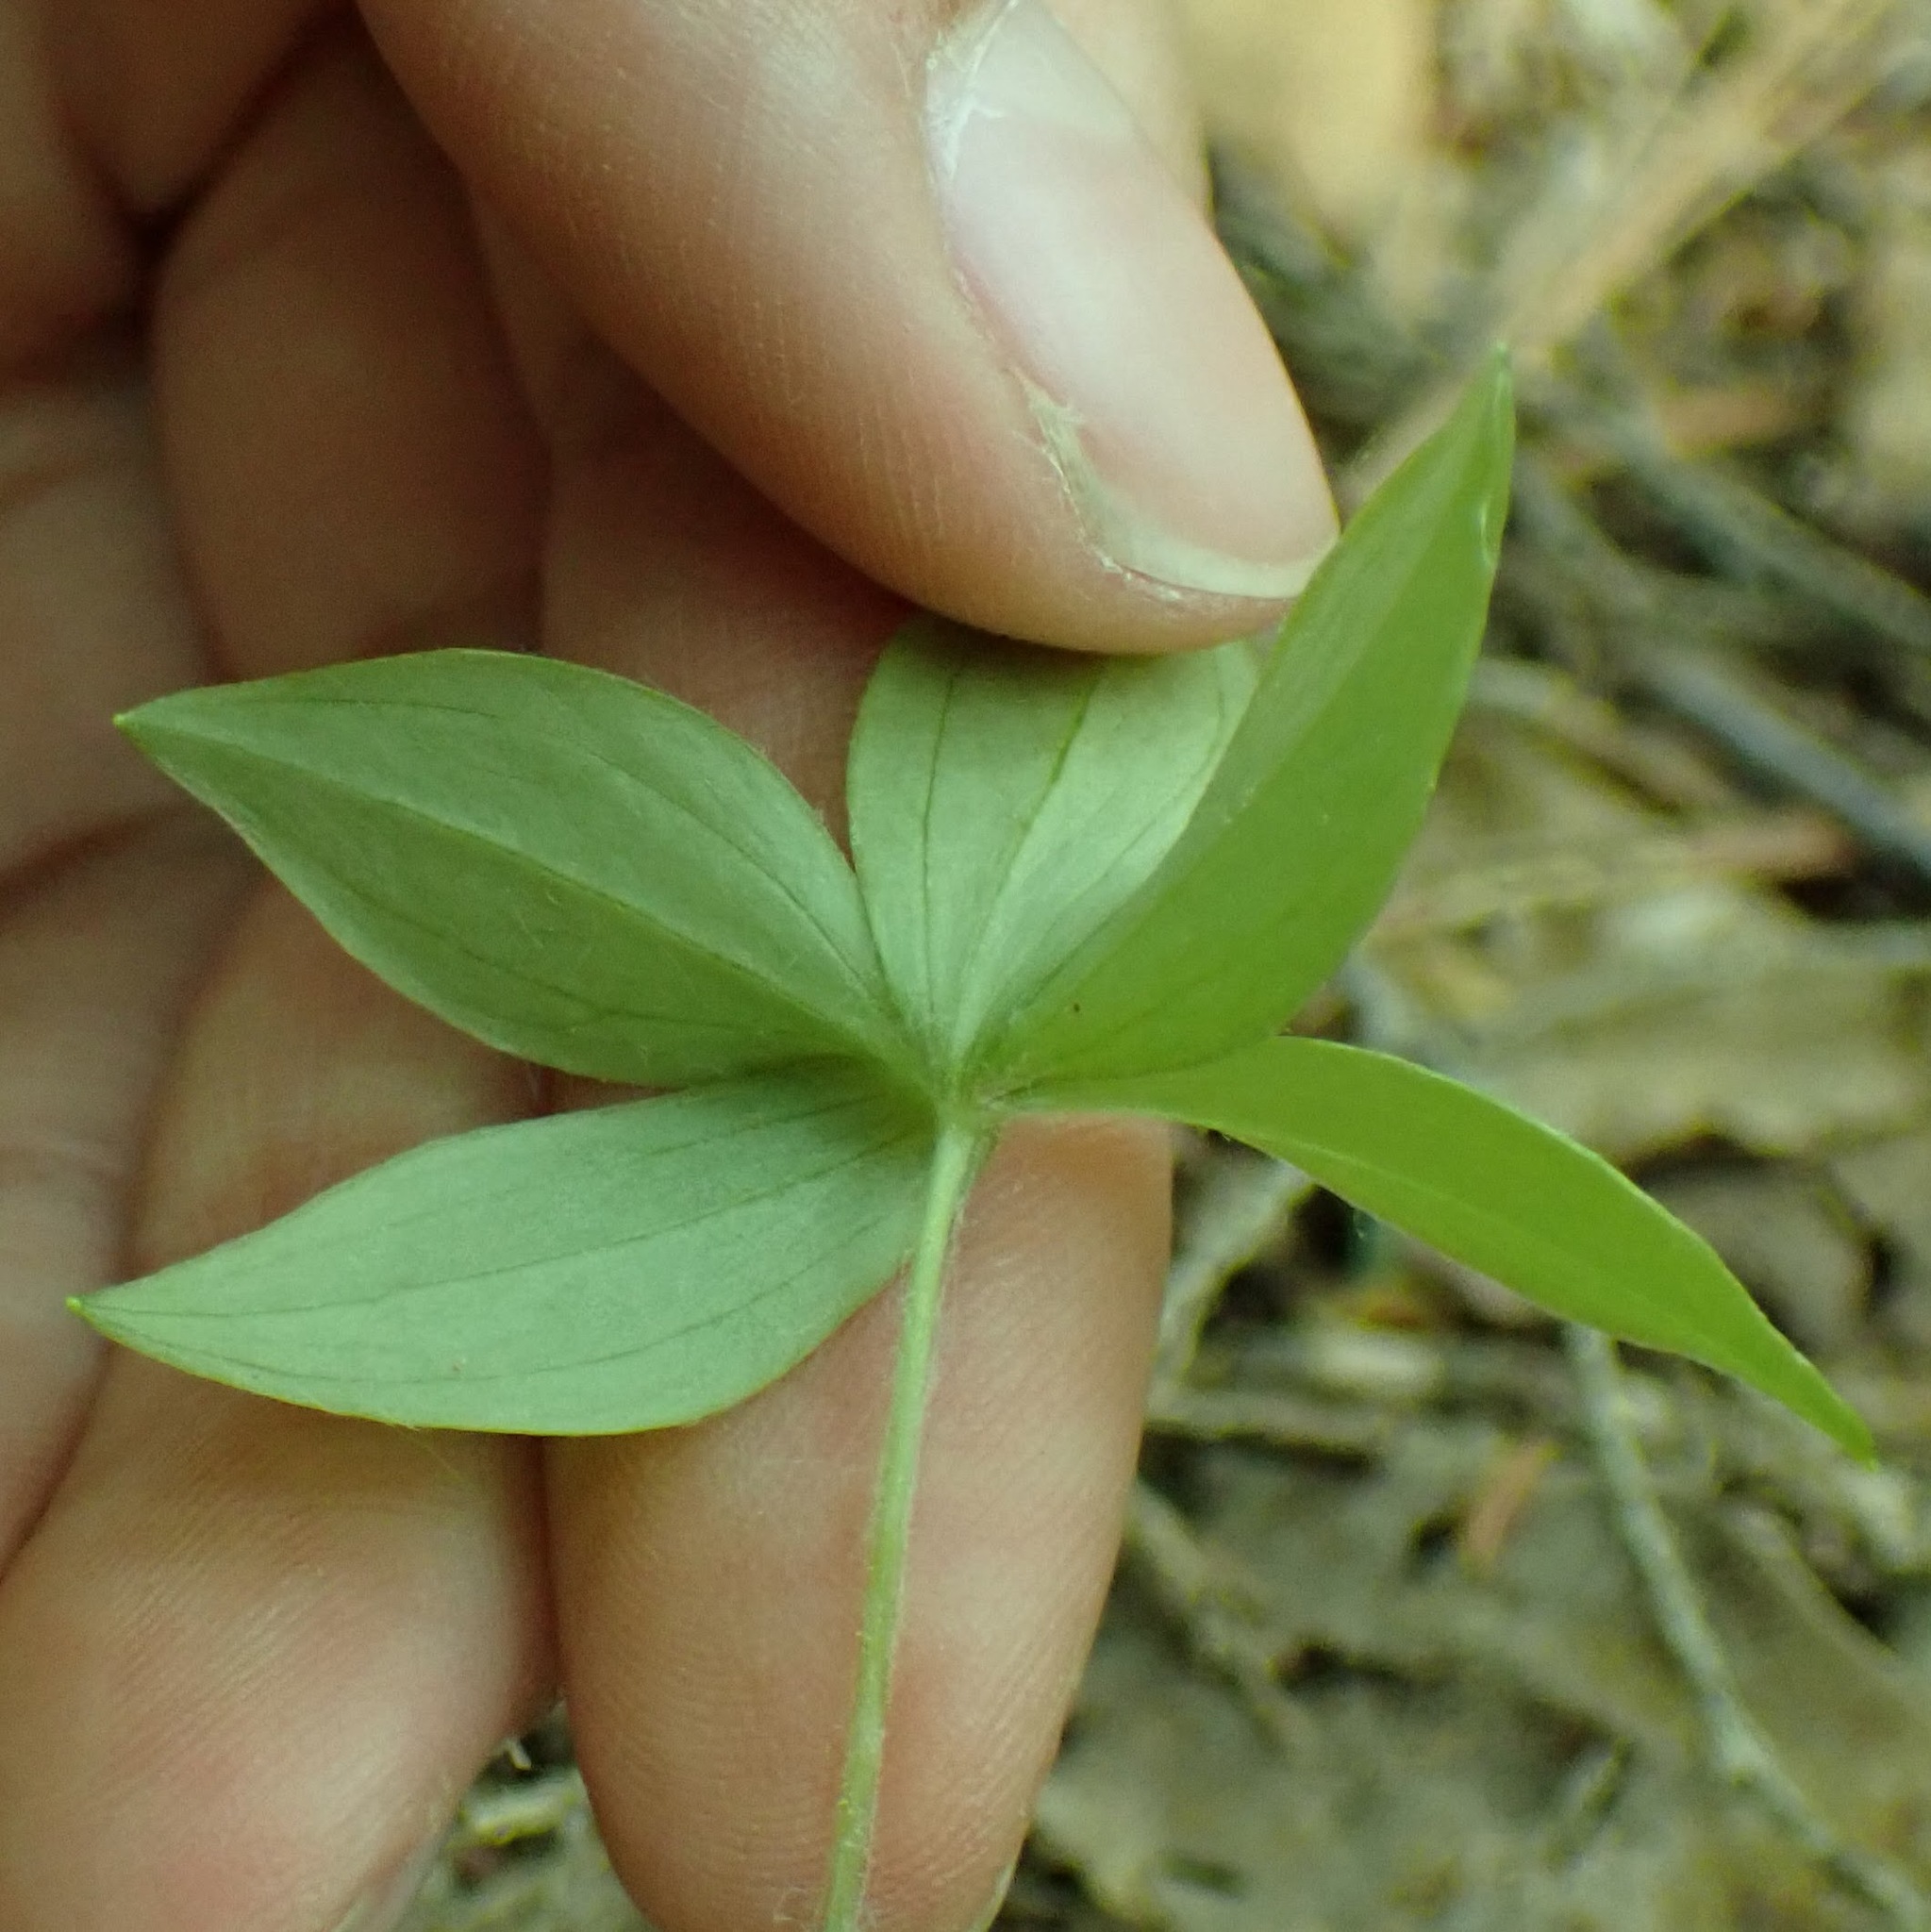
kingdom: Plantae
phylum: Tracheophyta
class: Liliopsida
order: Liliales
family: Liliaceae
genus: Medeola
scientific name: Medeola virginiana
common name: Indian cucumber-root
